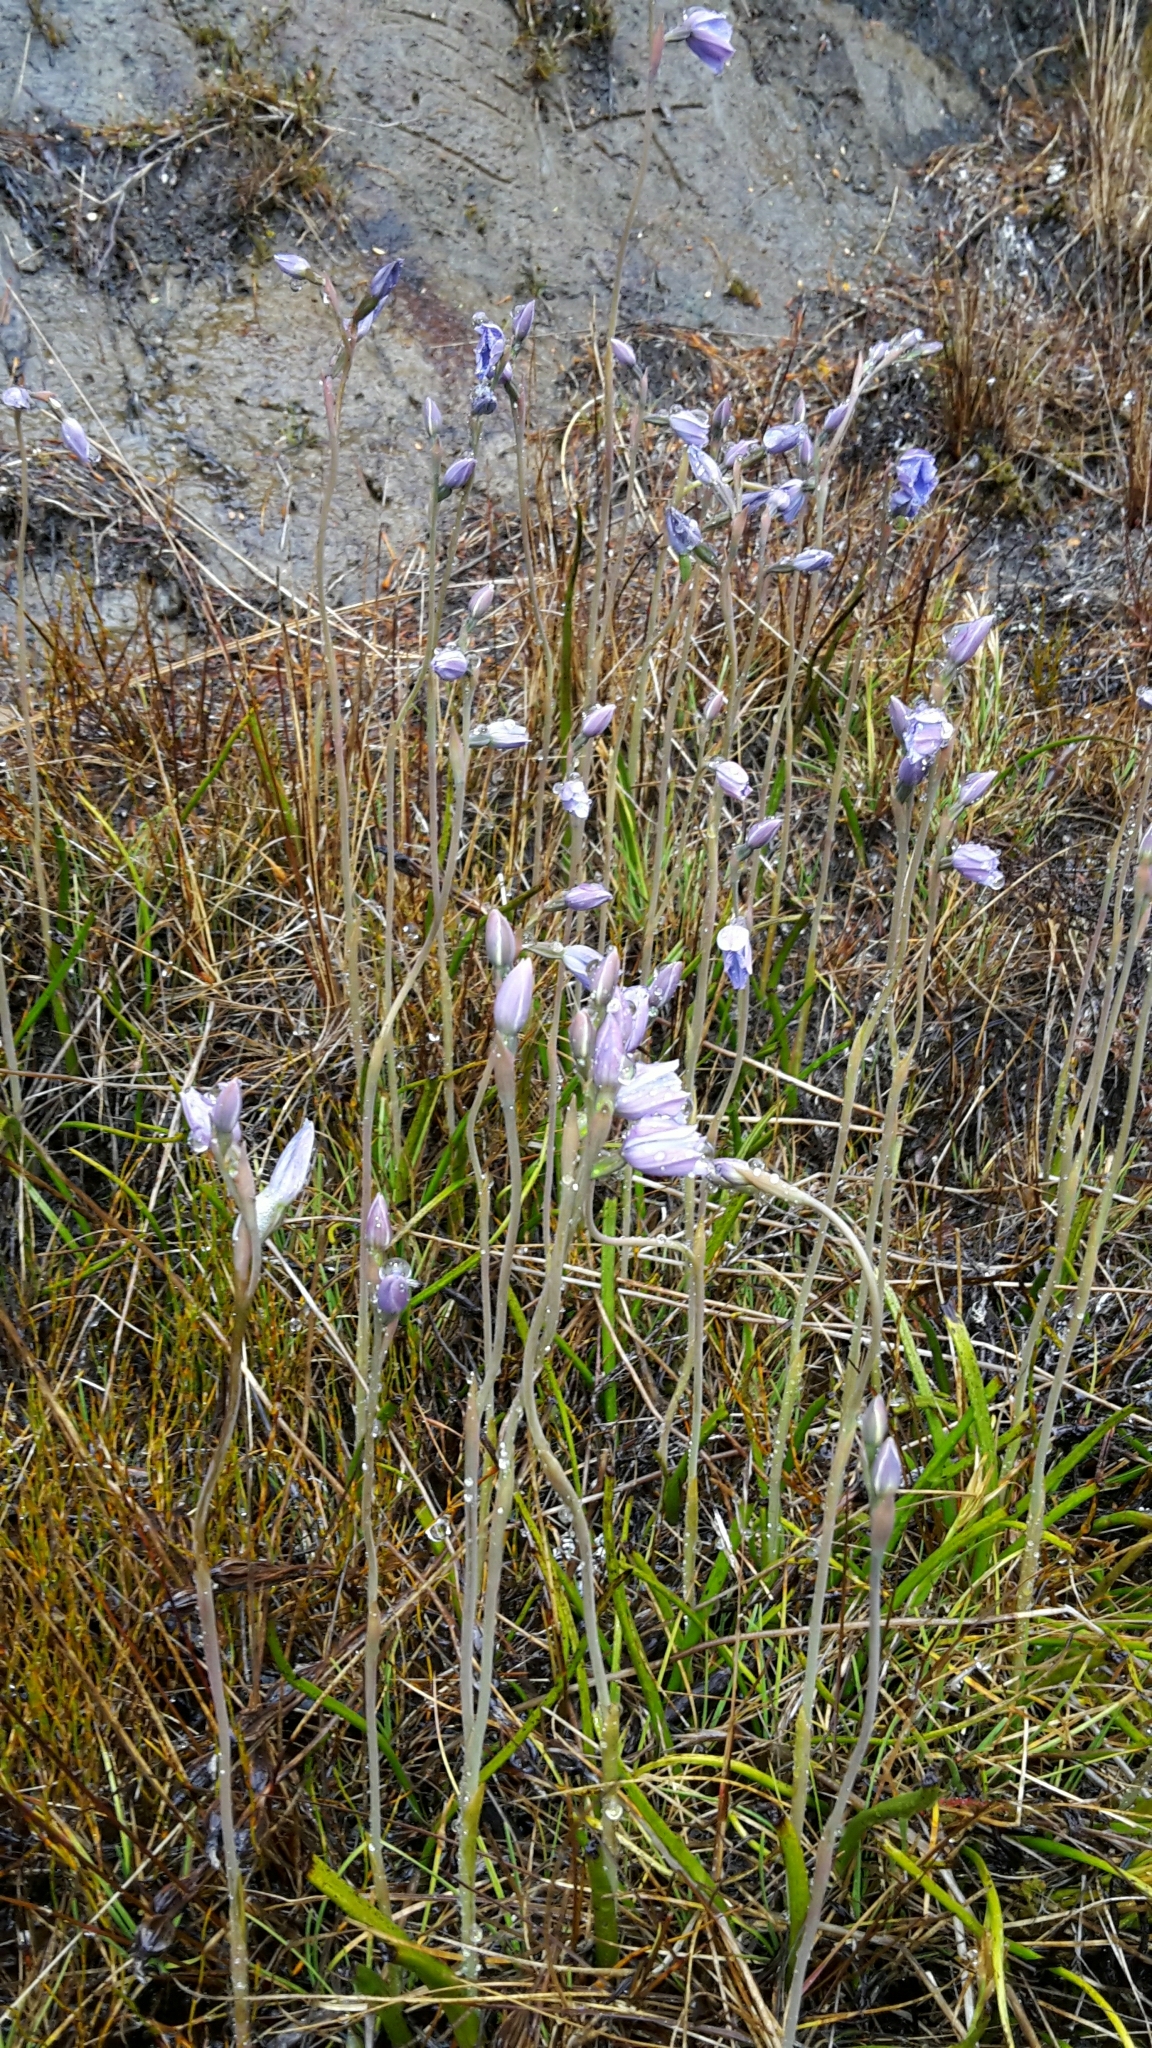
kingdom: Plantae
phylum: Tracheophyta
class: Liliopsida
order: Asparagales
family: Orchidaceae
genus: Thelymitra
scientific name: Thelymitra cyanea
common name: Blue sun-orchid
